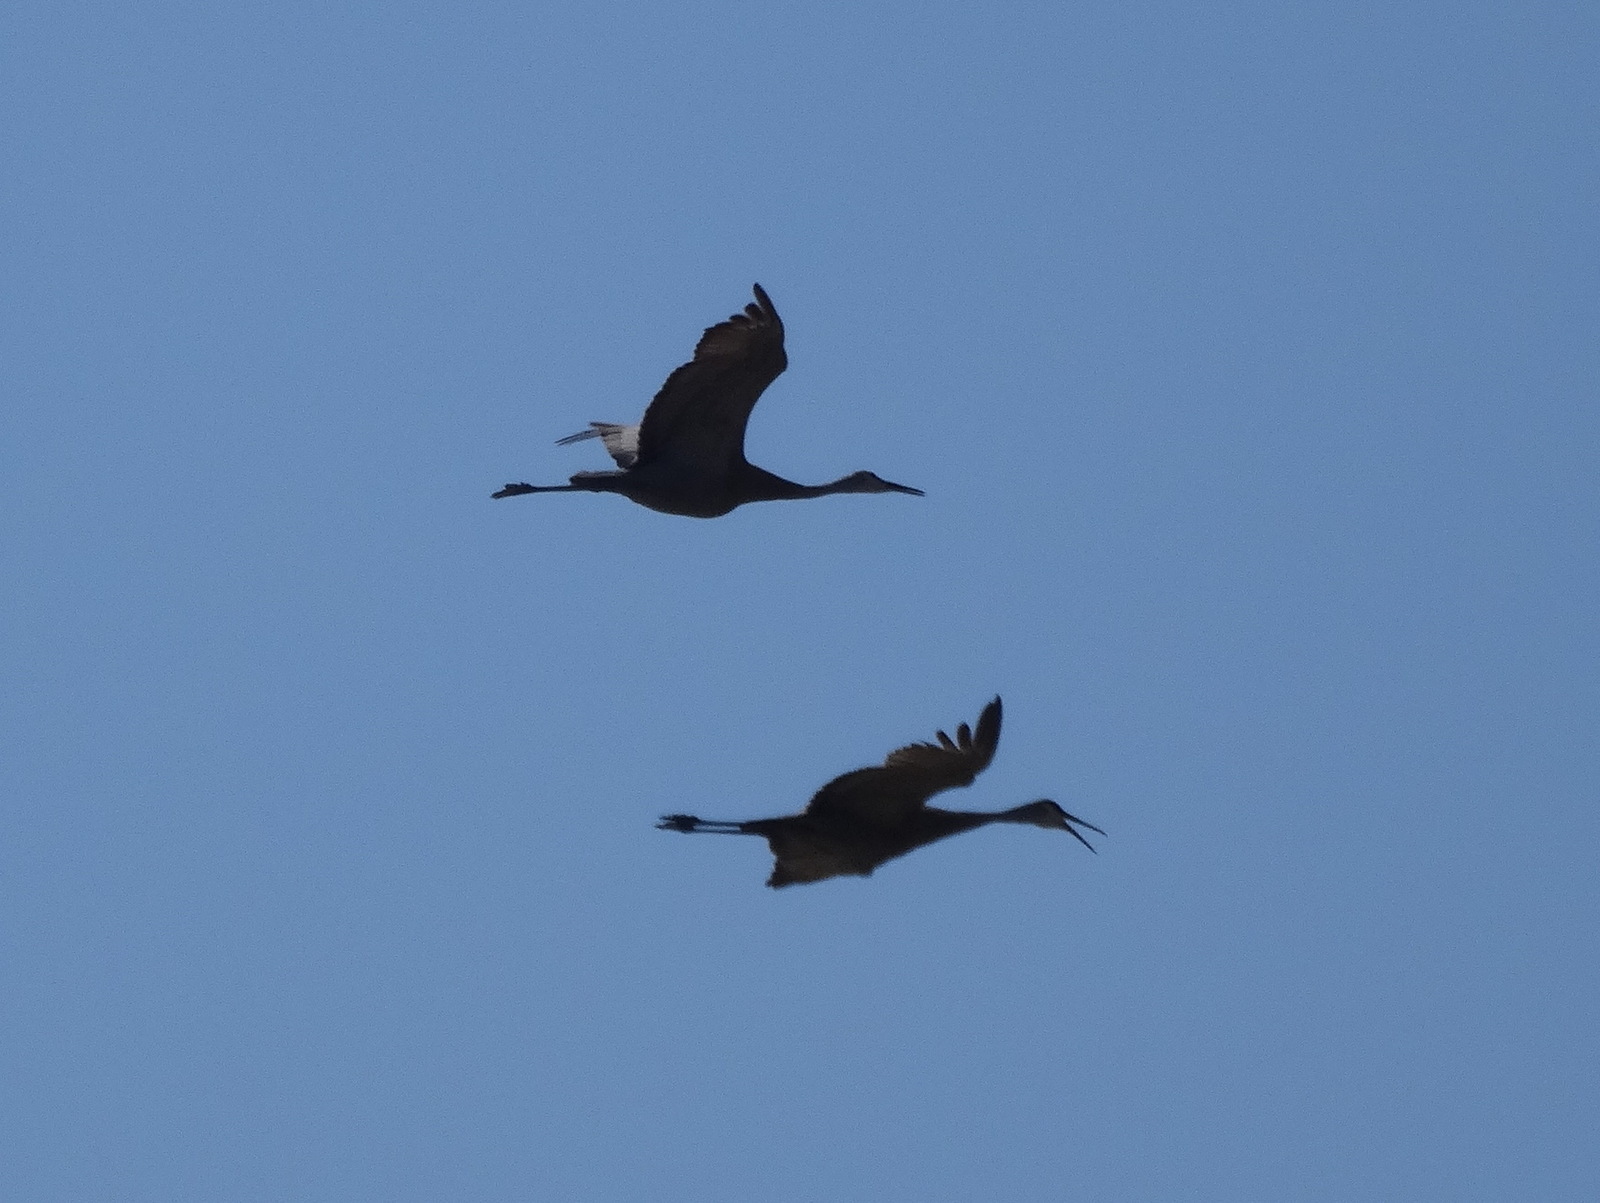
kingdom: Animalia
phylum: Chordata
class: Aves
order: Gruiformes
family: Gruidae
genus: Grus
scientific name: Grus canadensis
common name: Sandhill crane
